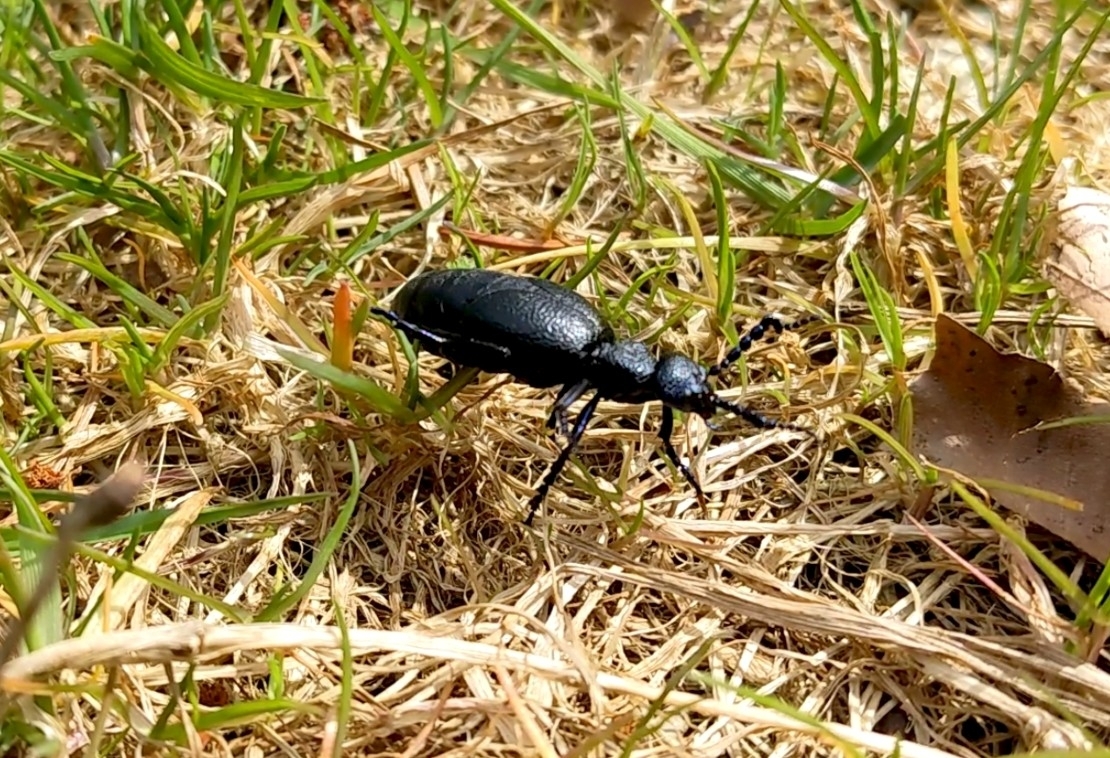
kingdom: Animalia
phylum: Arthropoda
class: Insecta
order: Coleoptera
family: Meloidae
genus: Meloe
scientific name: Meloe proscarabaeus
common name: Black oil-beetle
